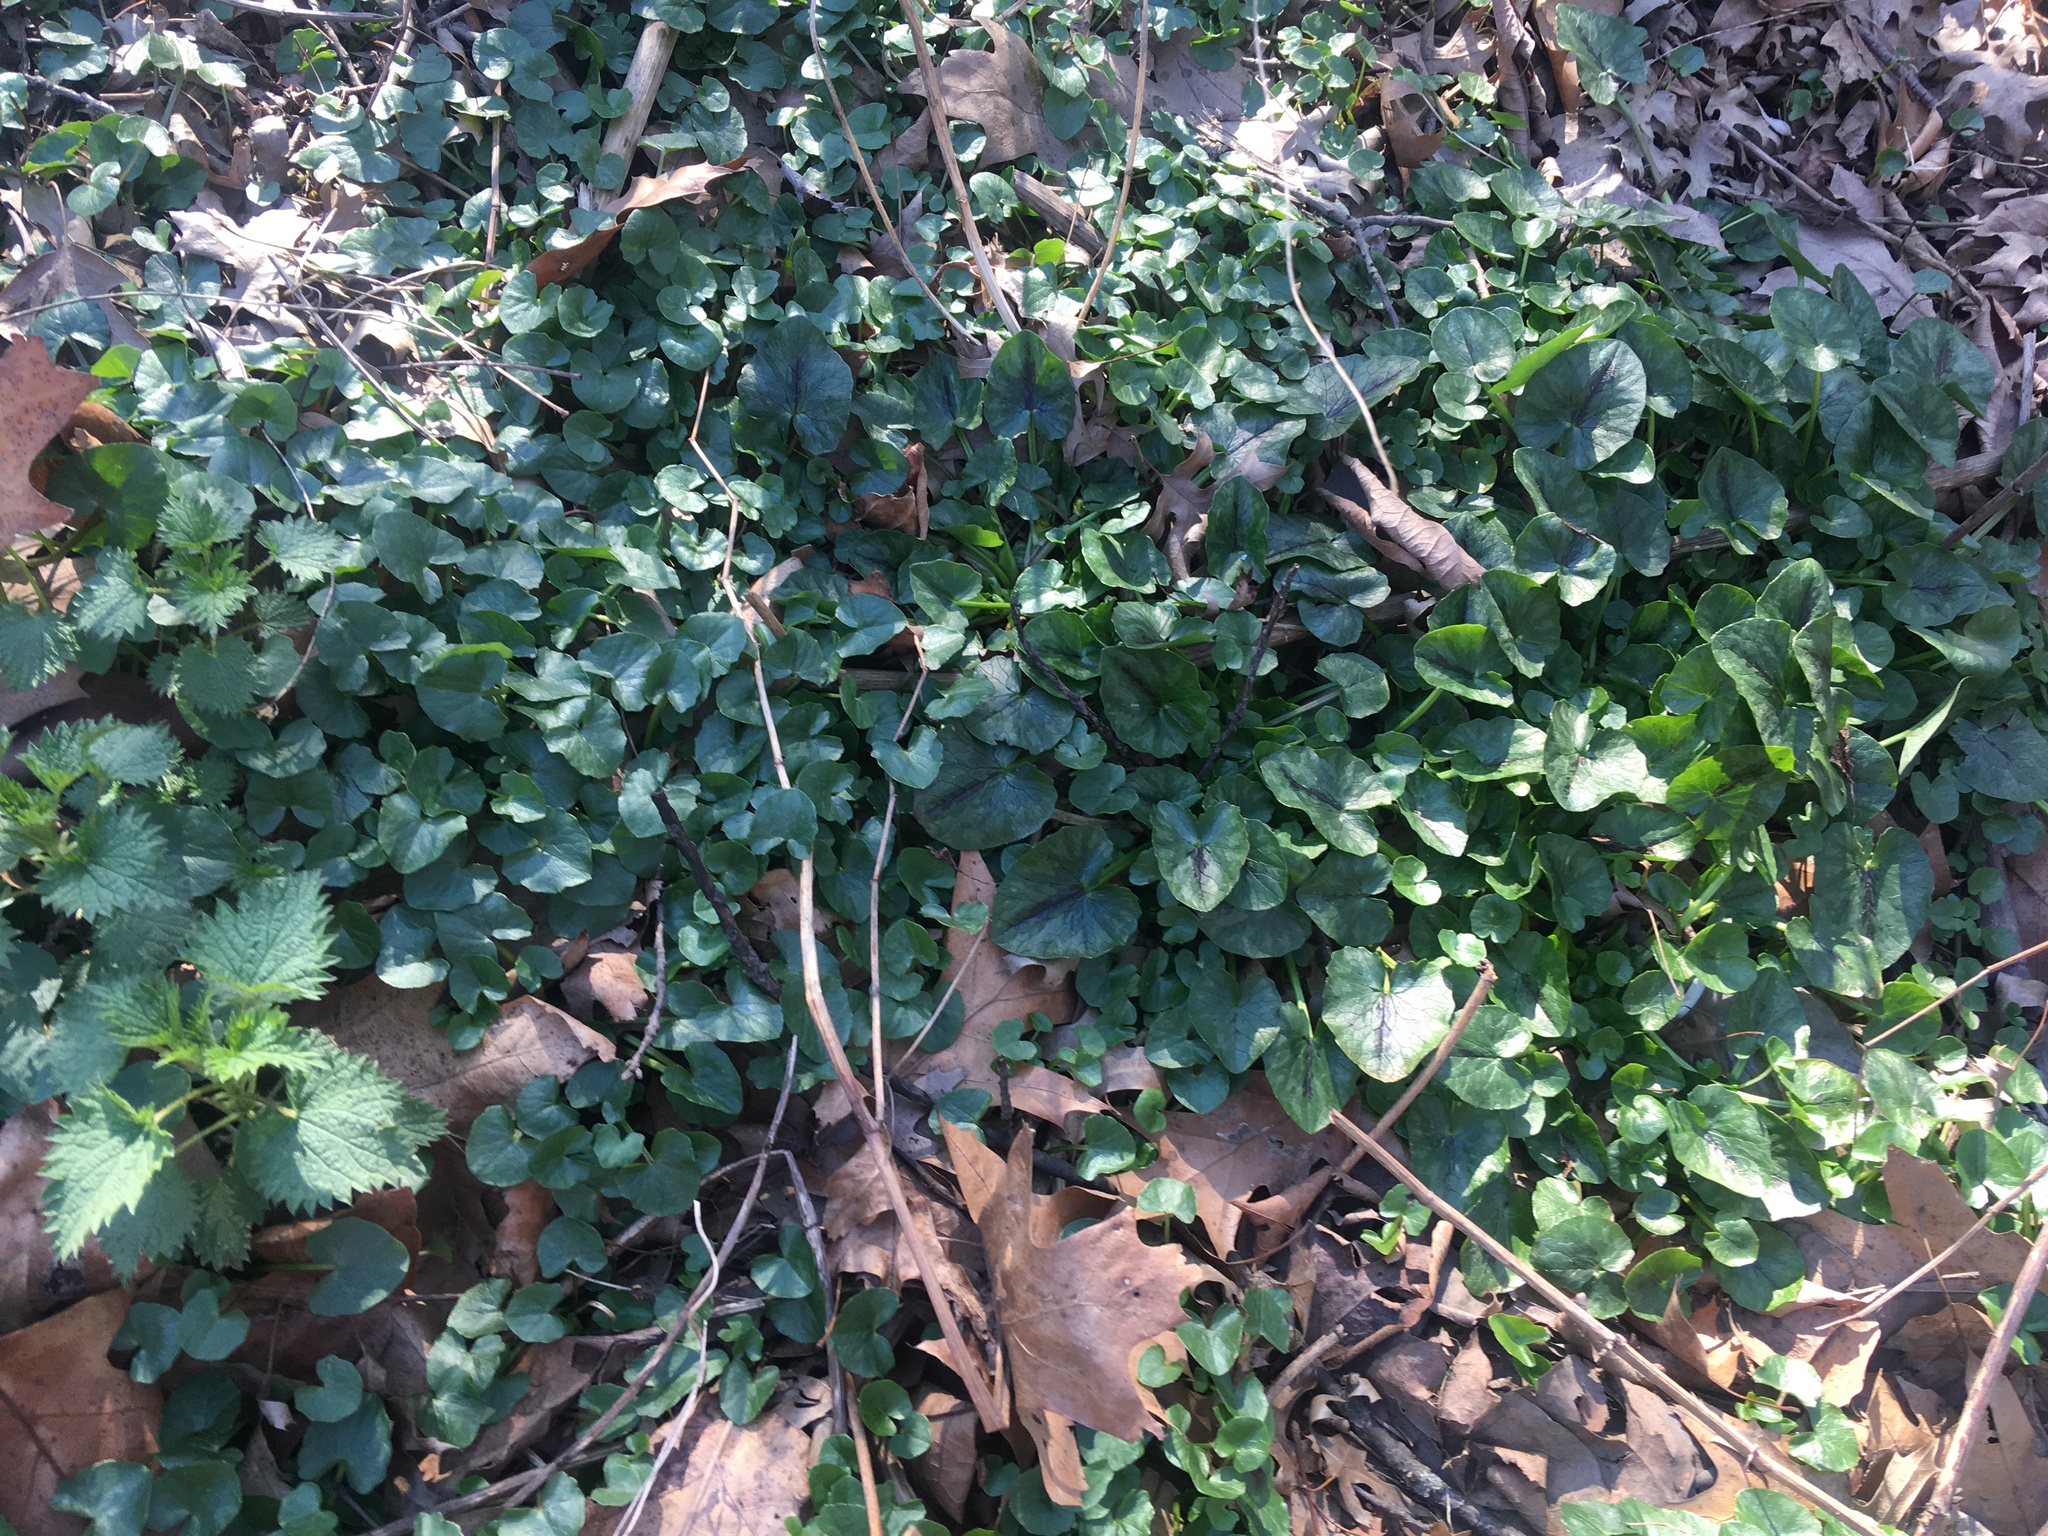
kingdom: Plantae
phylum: Tracheophyta
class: Magnoliopsida
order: Ranunculales
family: Ranunculaceae
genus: Ficaria
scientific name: Ficaria verna
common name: Lesser celandine
